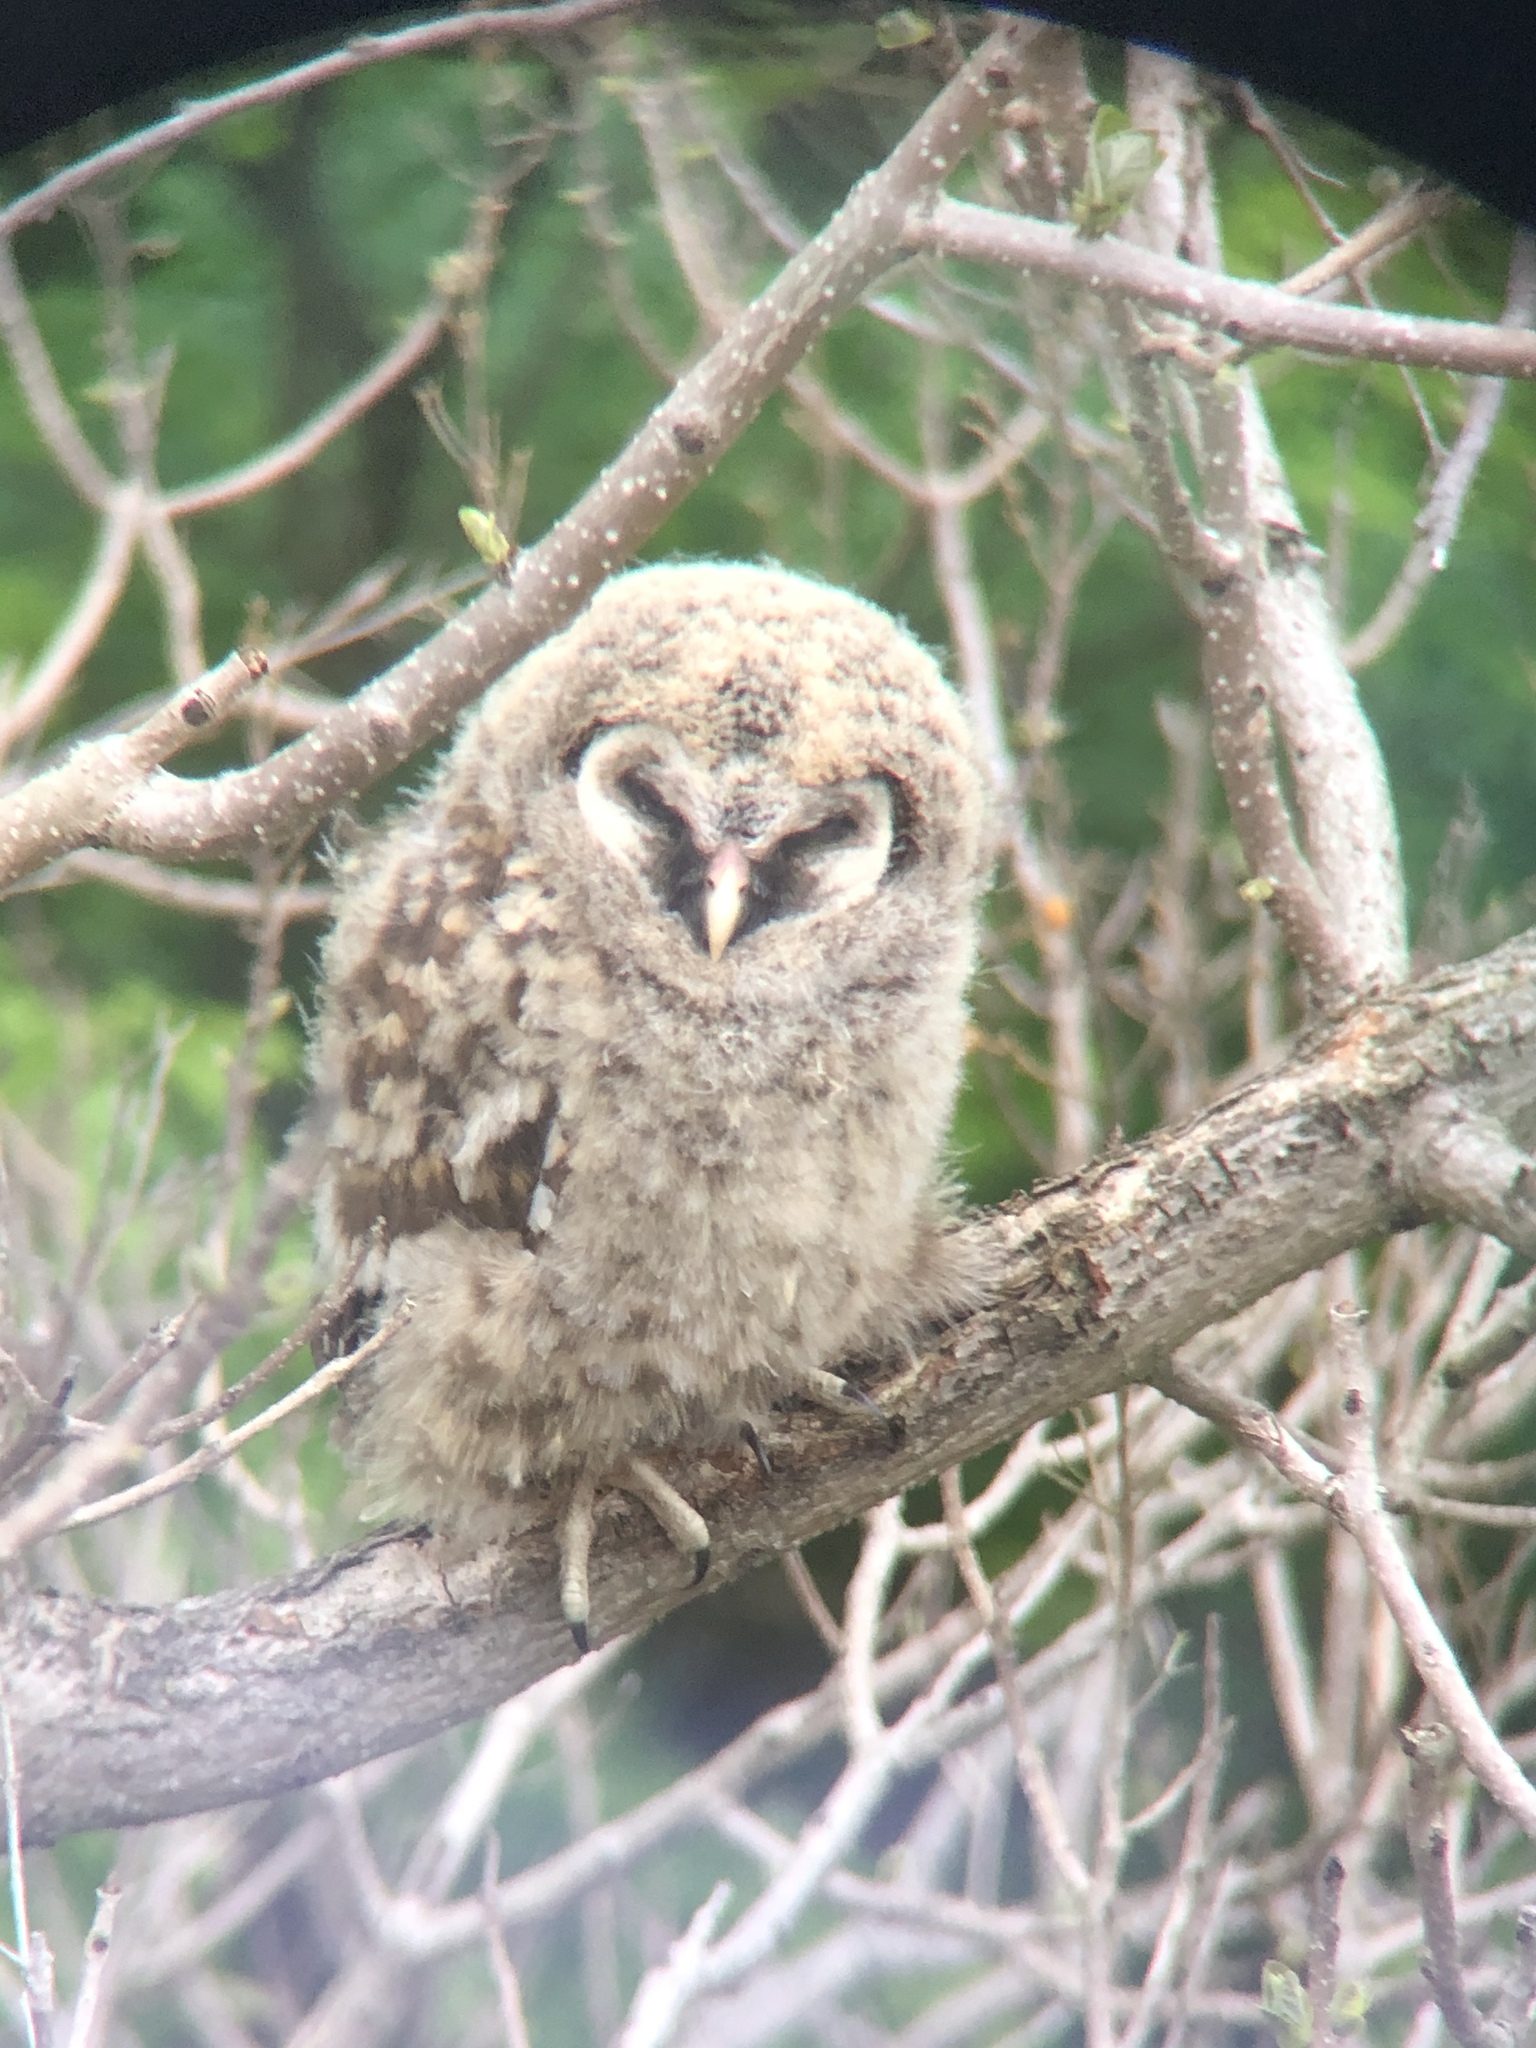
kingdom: Animalia
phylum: Chordata
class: Aves
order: Strigiformes
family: Strigidae
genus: Strix
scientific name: Strix varia
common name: Barred owl
